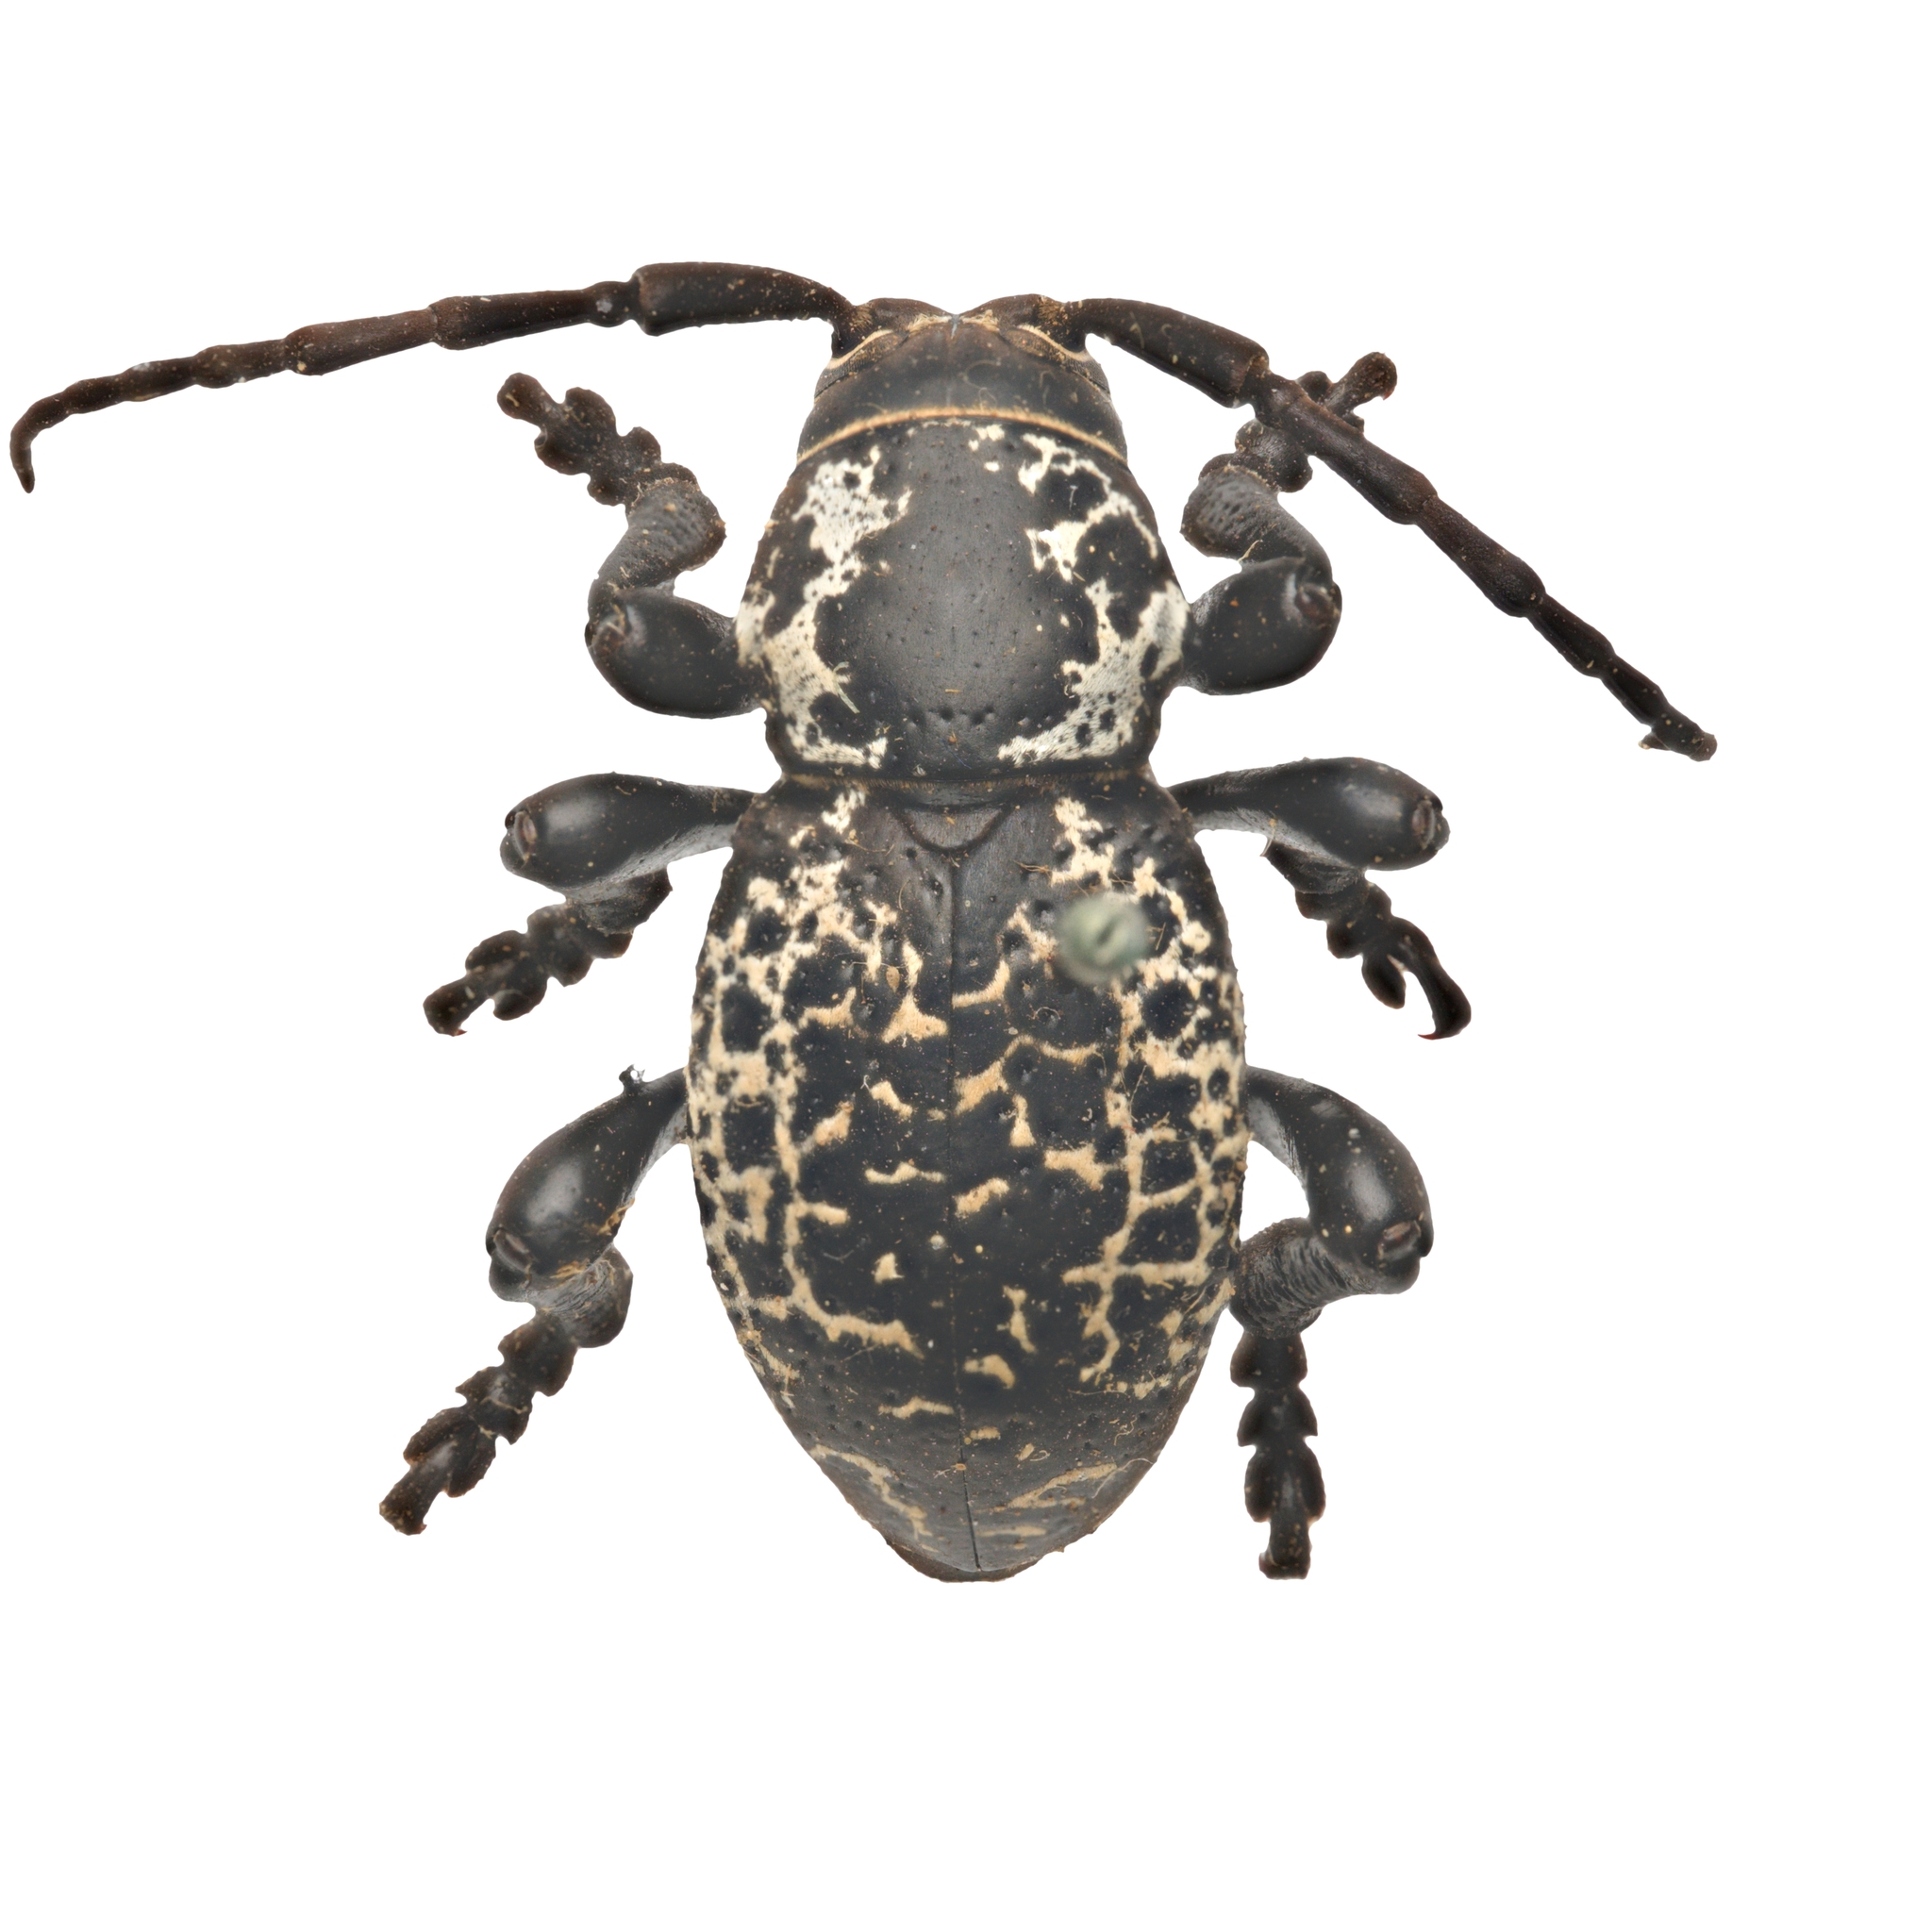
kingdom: Animalia
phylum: Arthropoda
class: Insecta
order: Coleoptera
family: Cerambycidae
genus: Moneilema
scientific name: Moneilema blapsides
